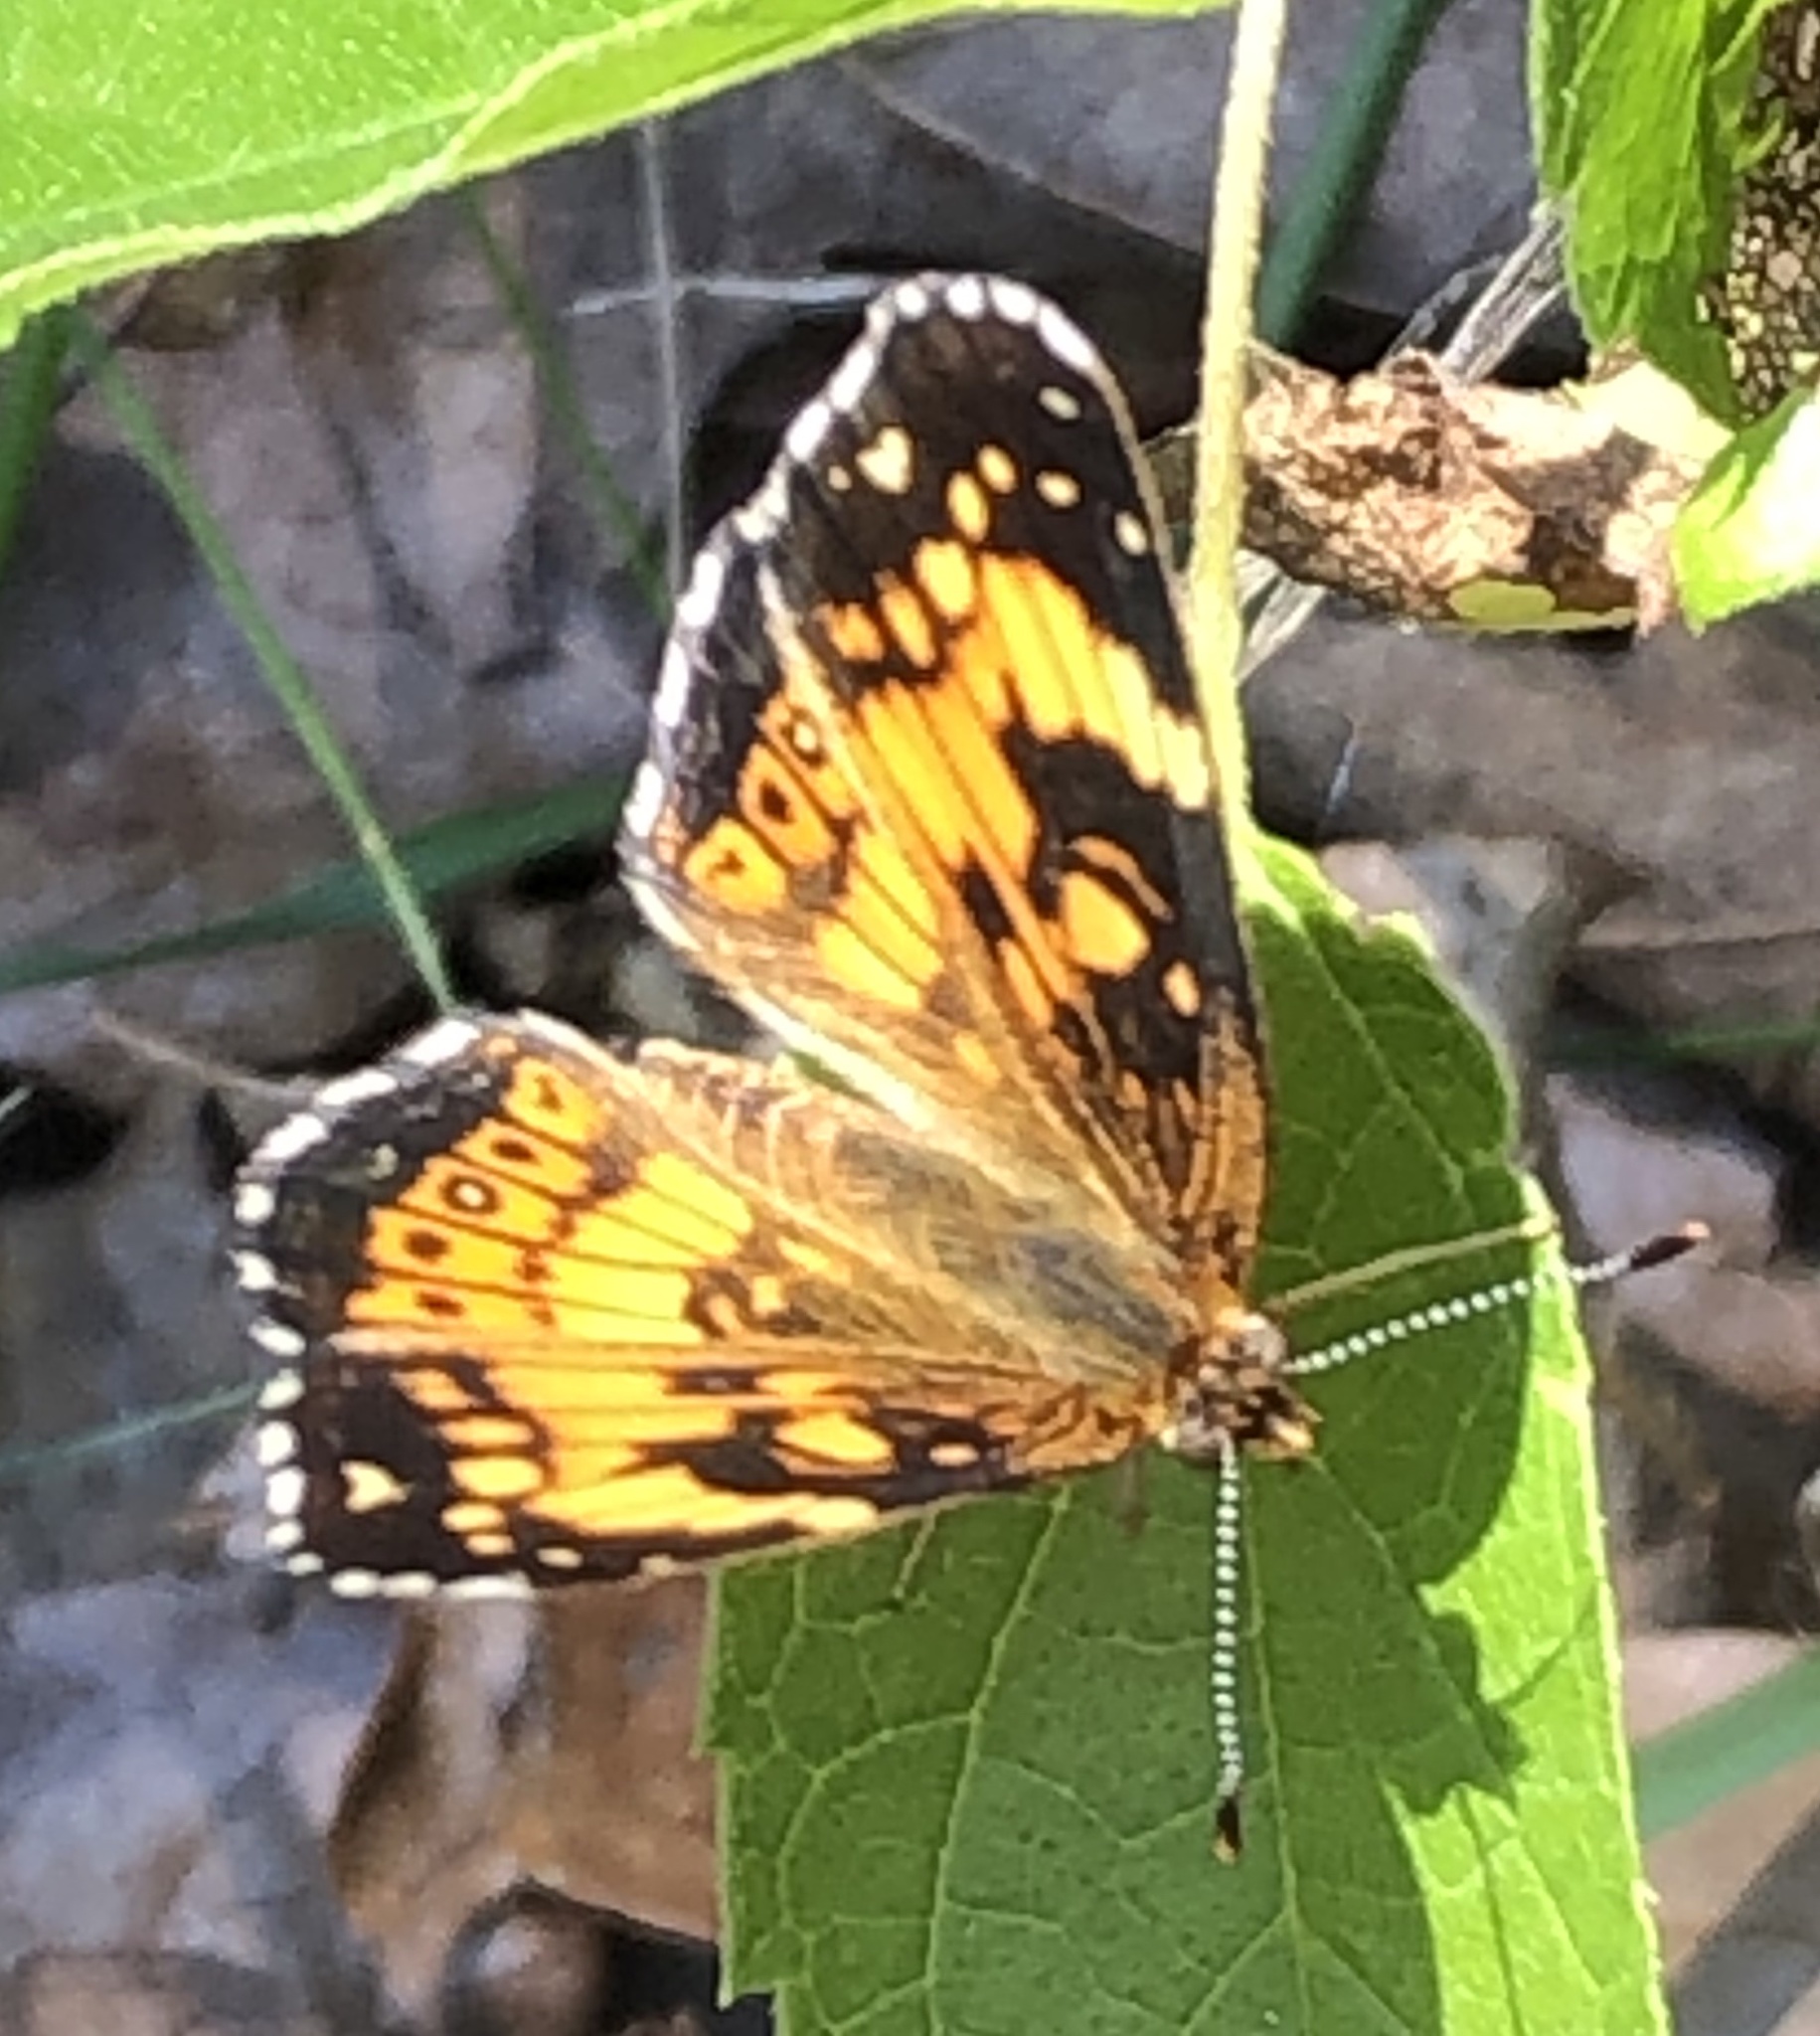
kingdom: Animalia
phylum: Arthropoda
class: Insecta
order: Lepidoptera
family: Nymphalidae
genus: Chlosyne
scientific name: Chlosyne nycteis
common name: Silvery checkerspot
